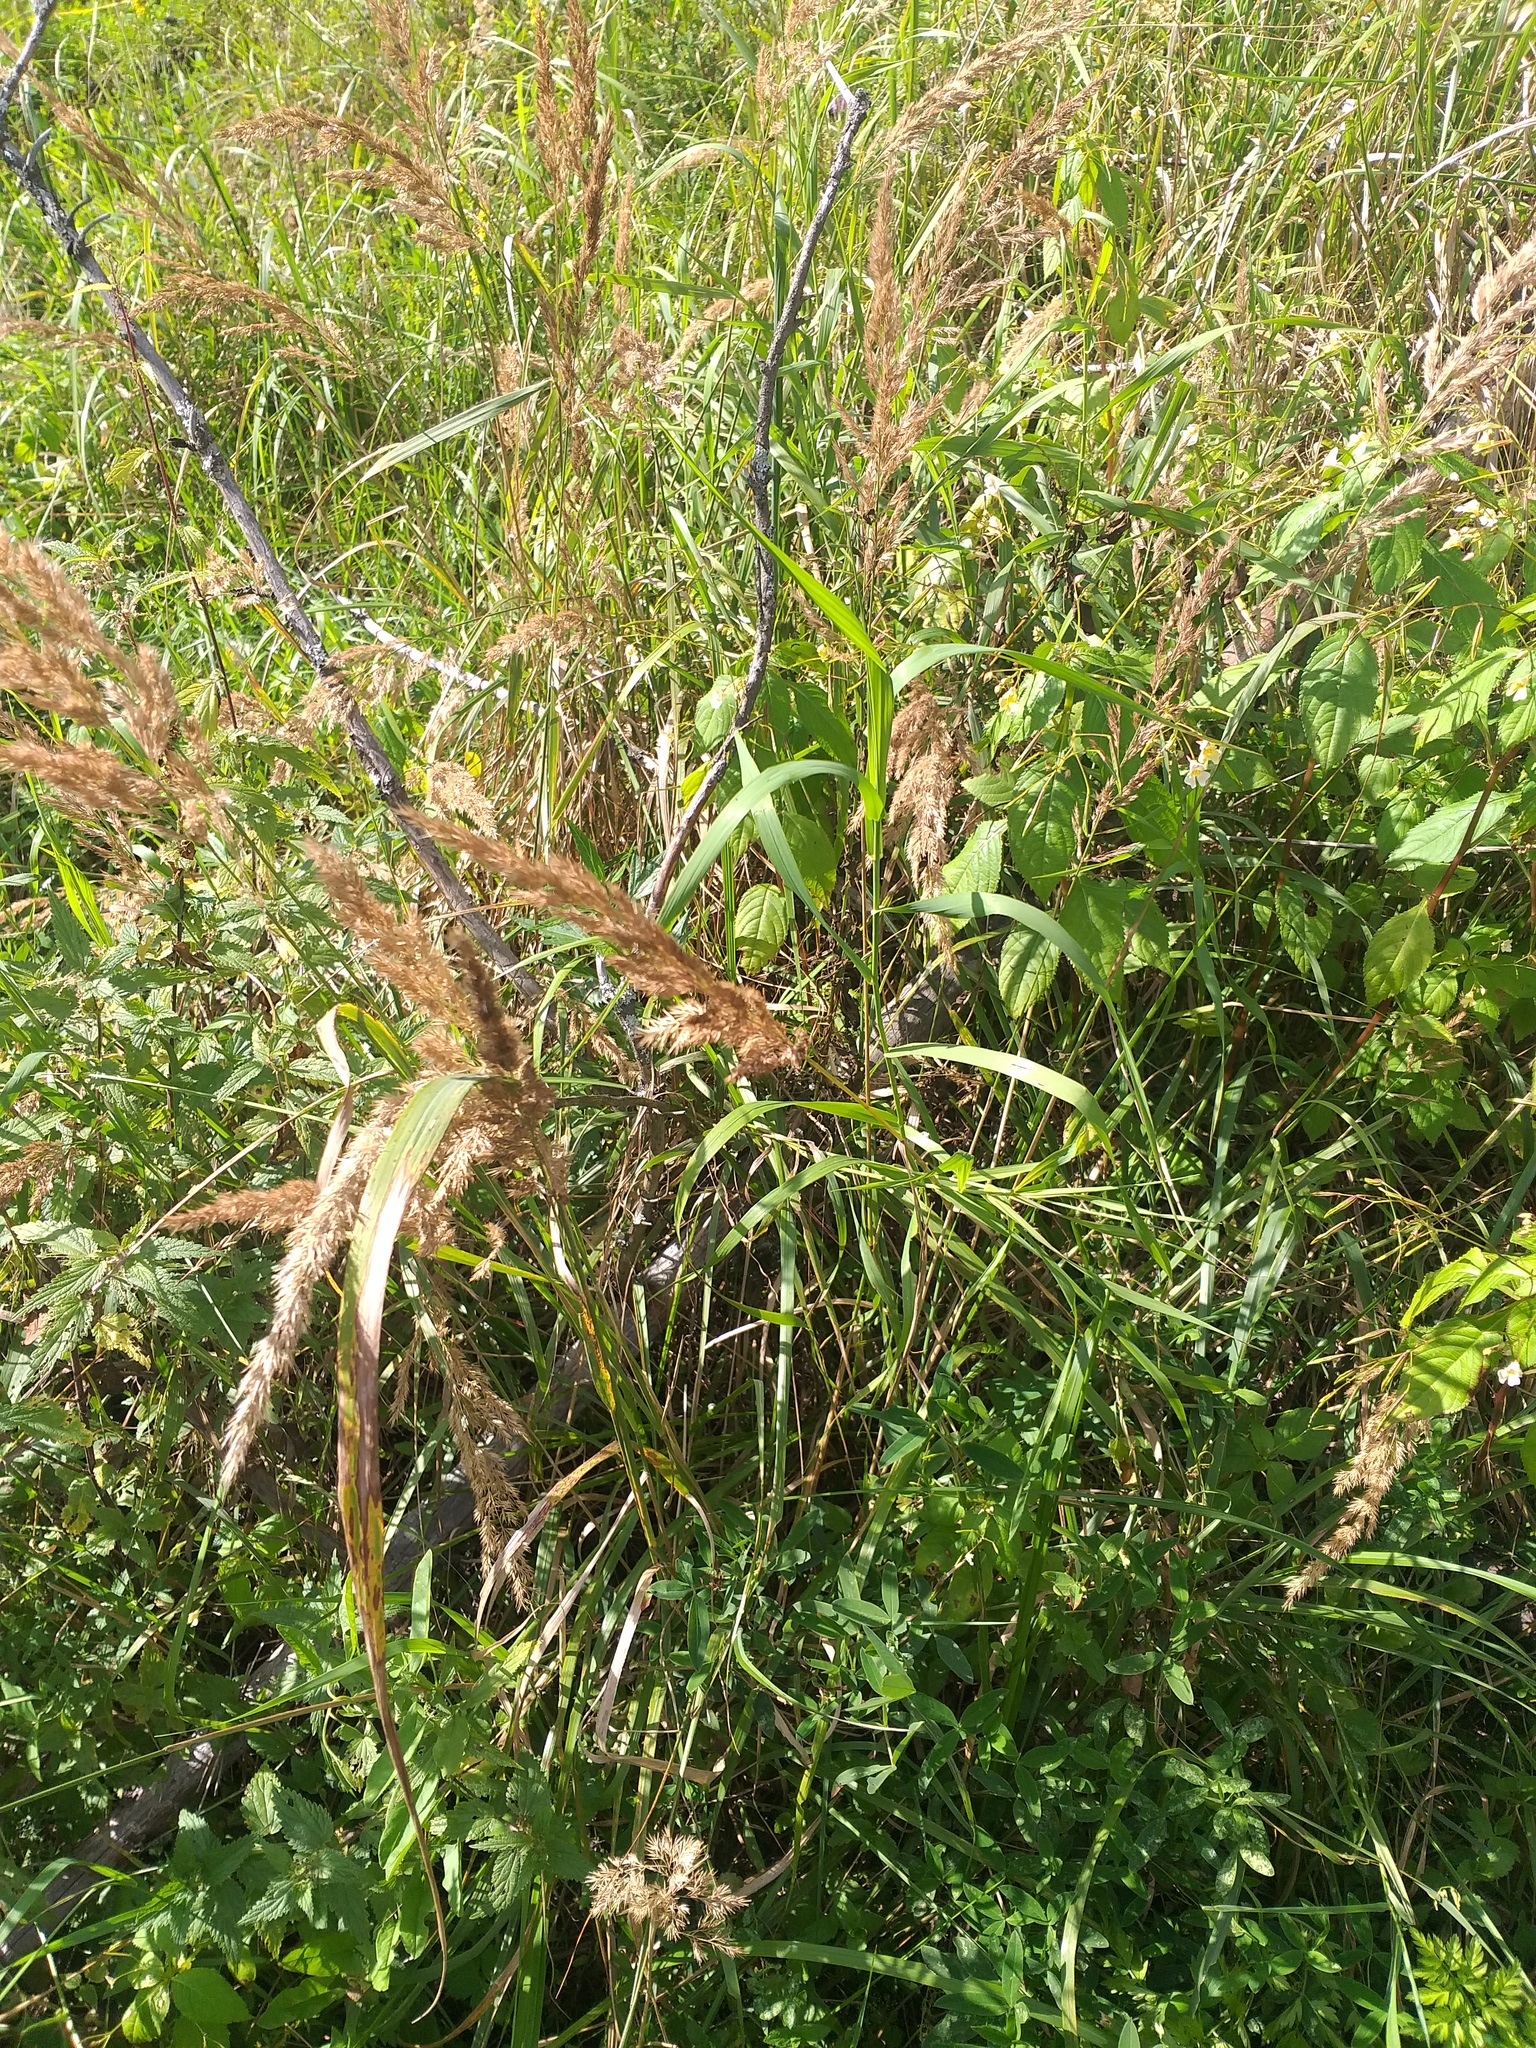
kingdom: Plantae
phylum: Tracheophyta
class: Liliopsida
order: Poales
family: Poaceae
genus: Calamagrostis
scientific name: Calamagrostis epigejos
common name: Wood small-reed
